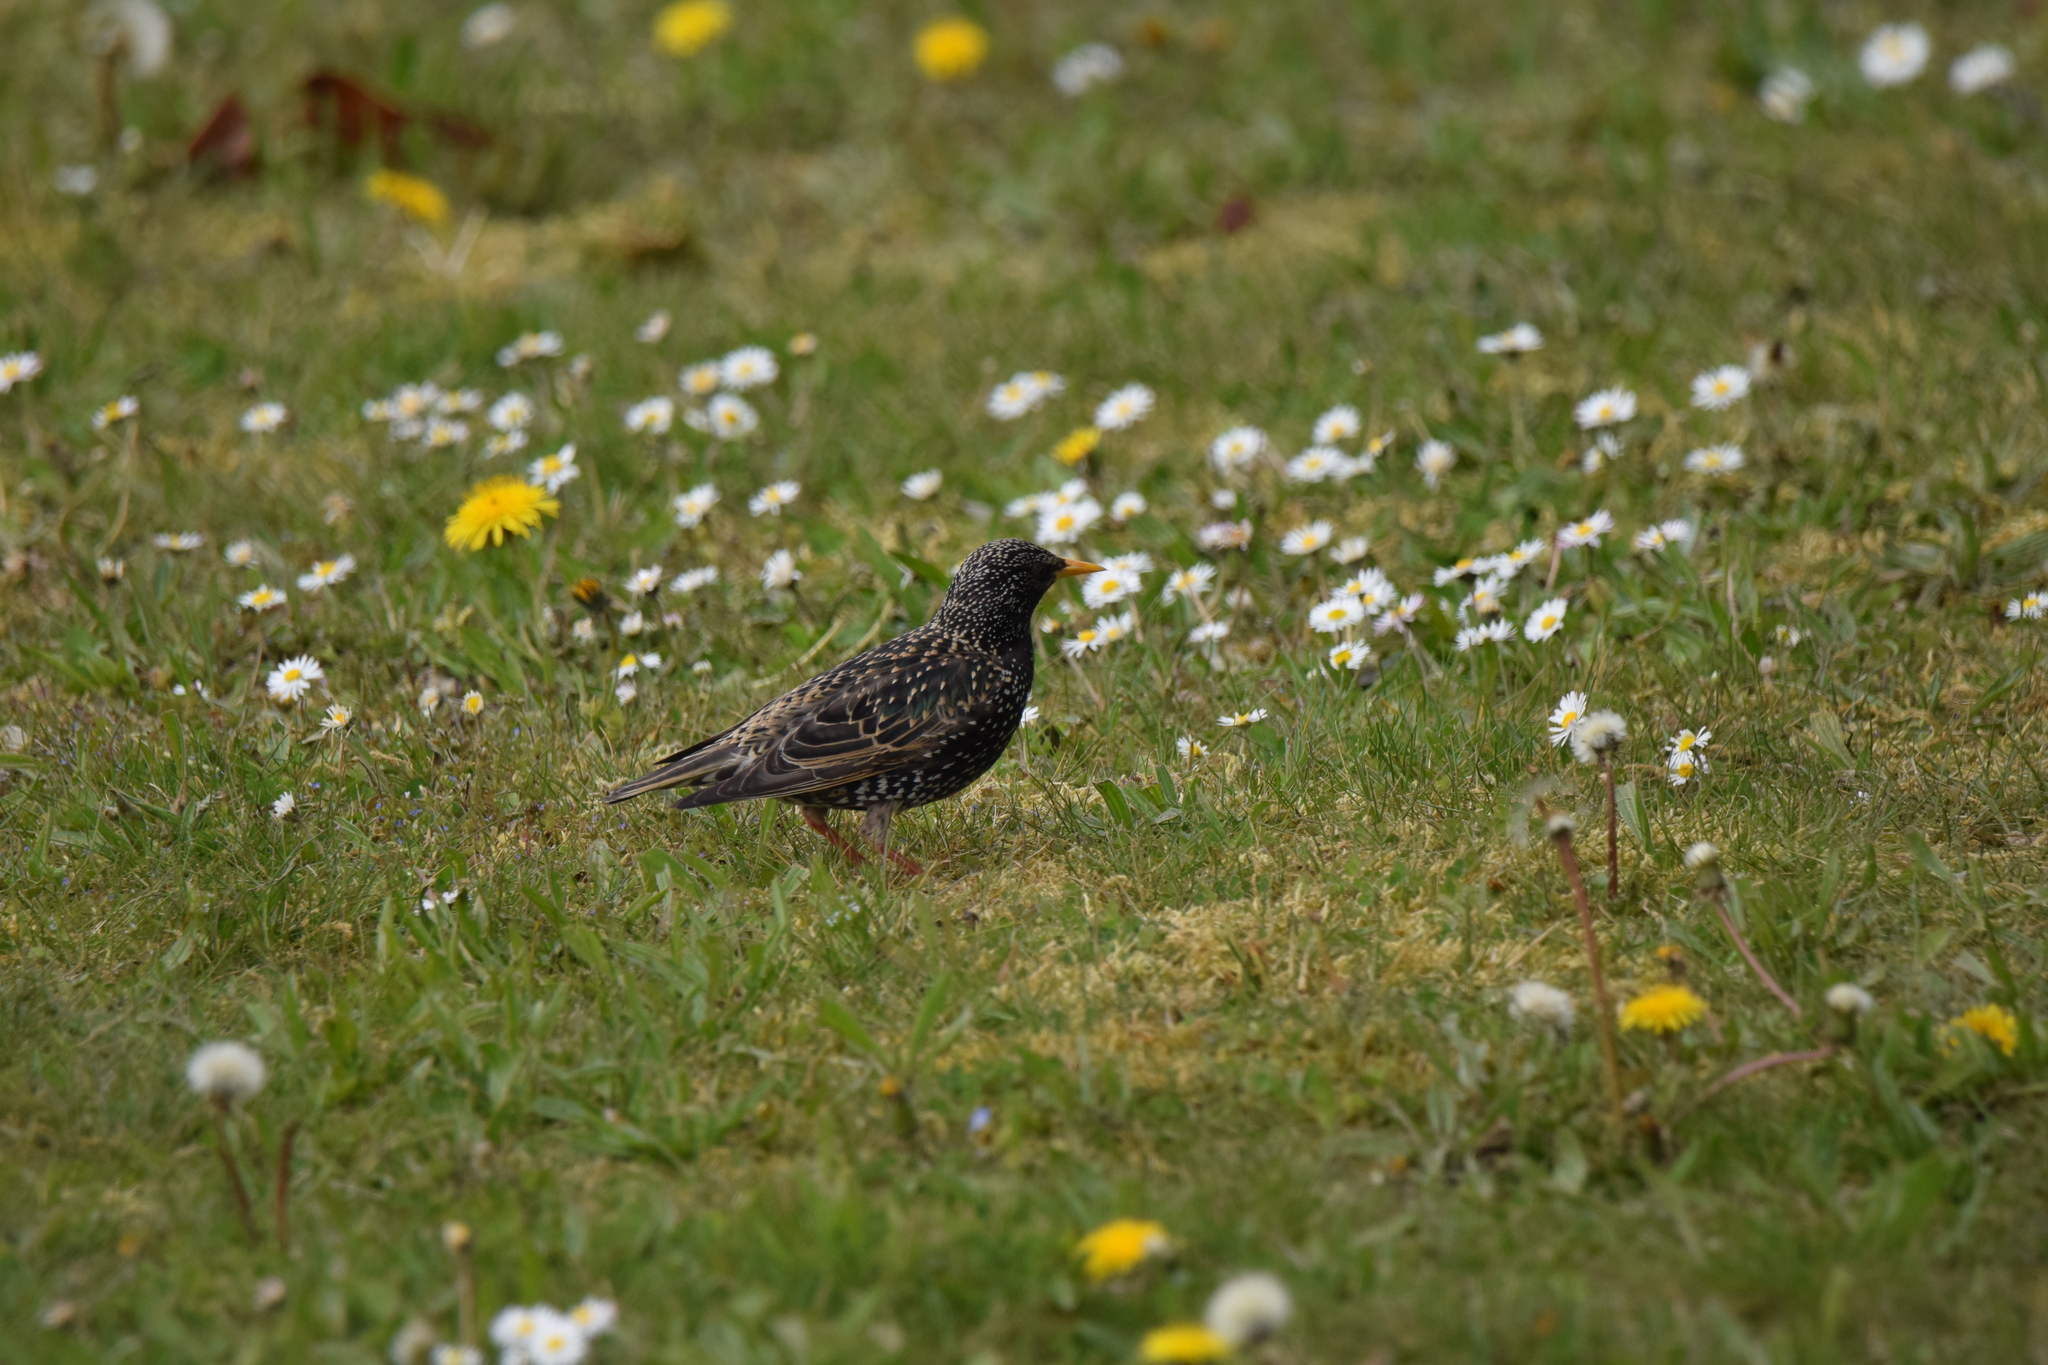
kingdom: Animalia
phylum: Chordata
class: Aves
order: Passeriformes
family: Sturnidae
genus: Sturnus
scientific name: Sturnus vulgaris
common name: Common starling
